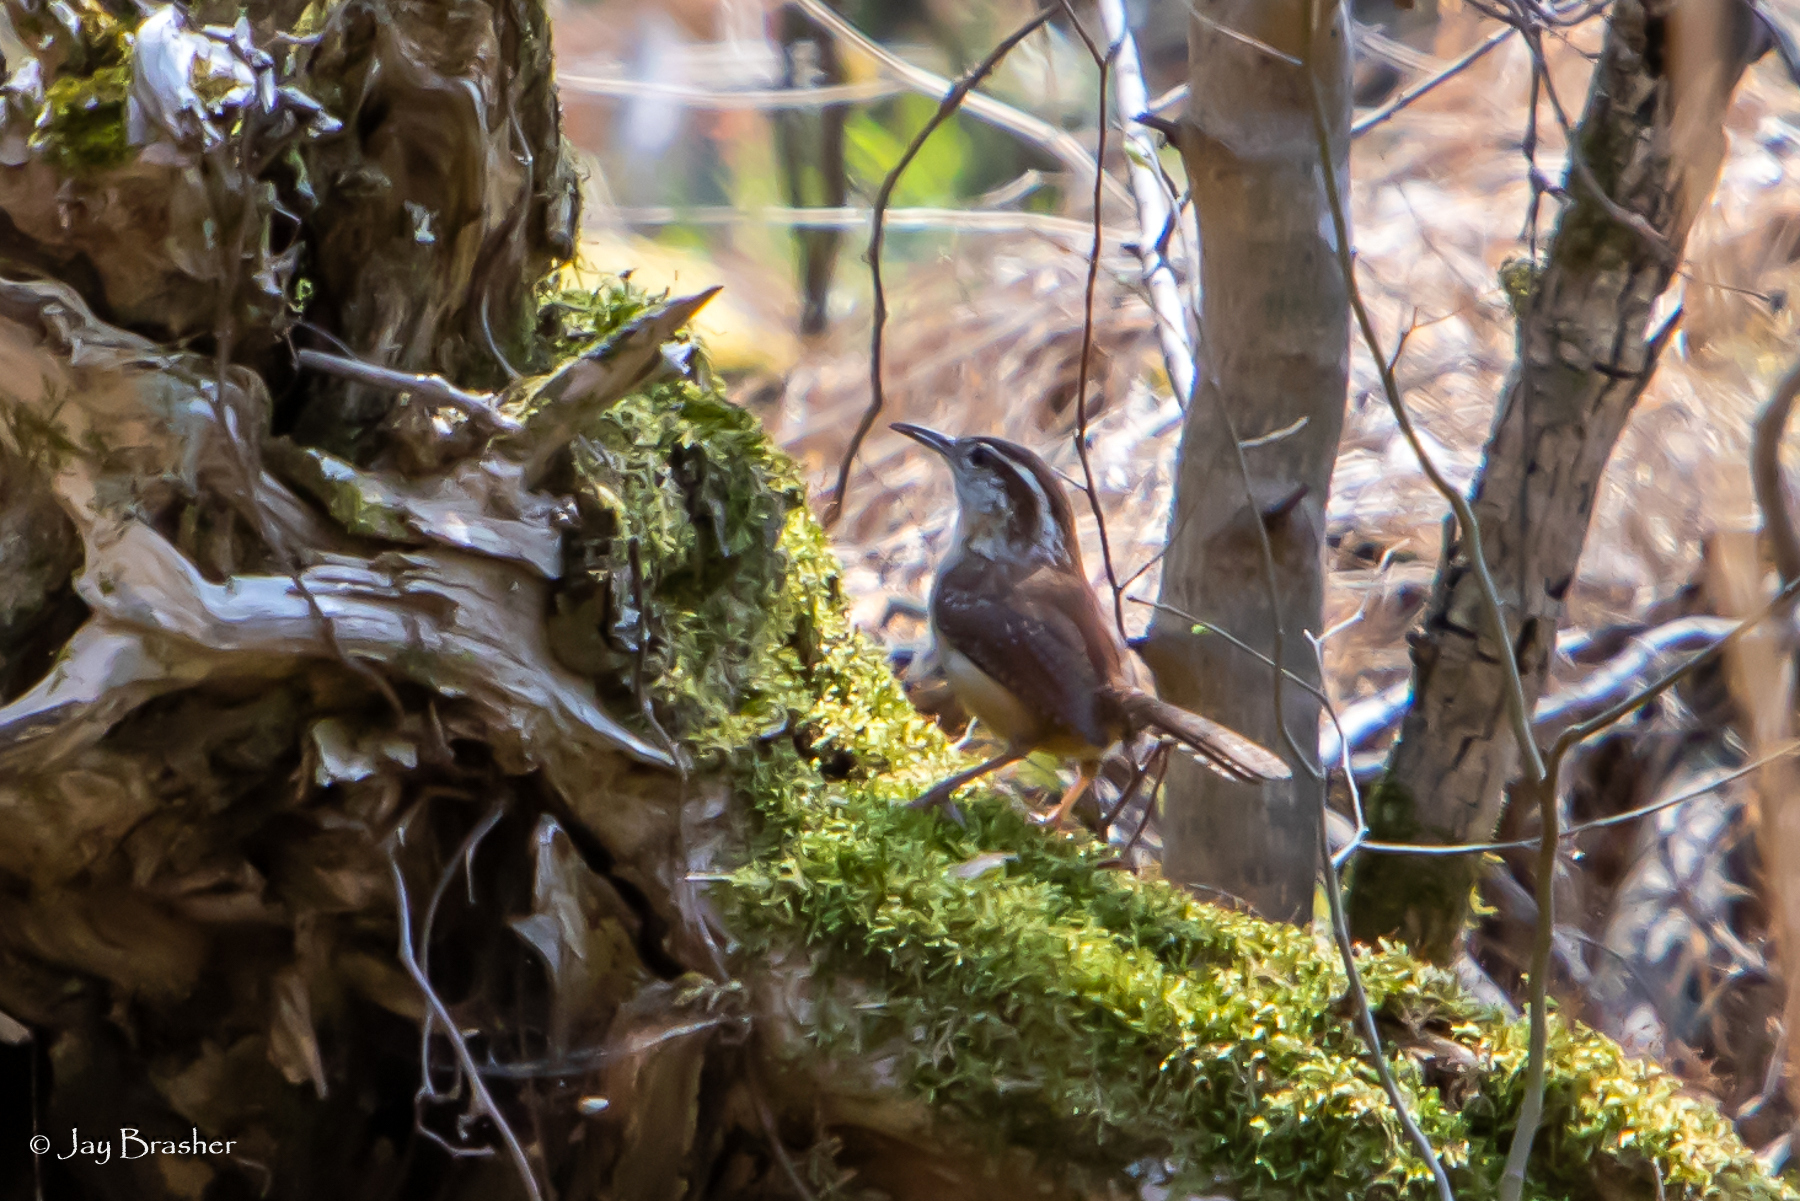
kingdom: Animalia
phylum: Chordata
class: Aves
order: Passeriformes
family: Troglodytidae
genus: Thryothorus
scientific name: Thryothorus ludovicianus
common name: Carolina wren
